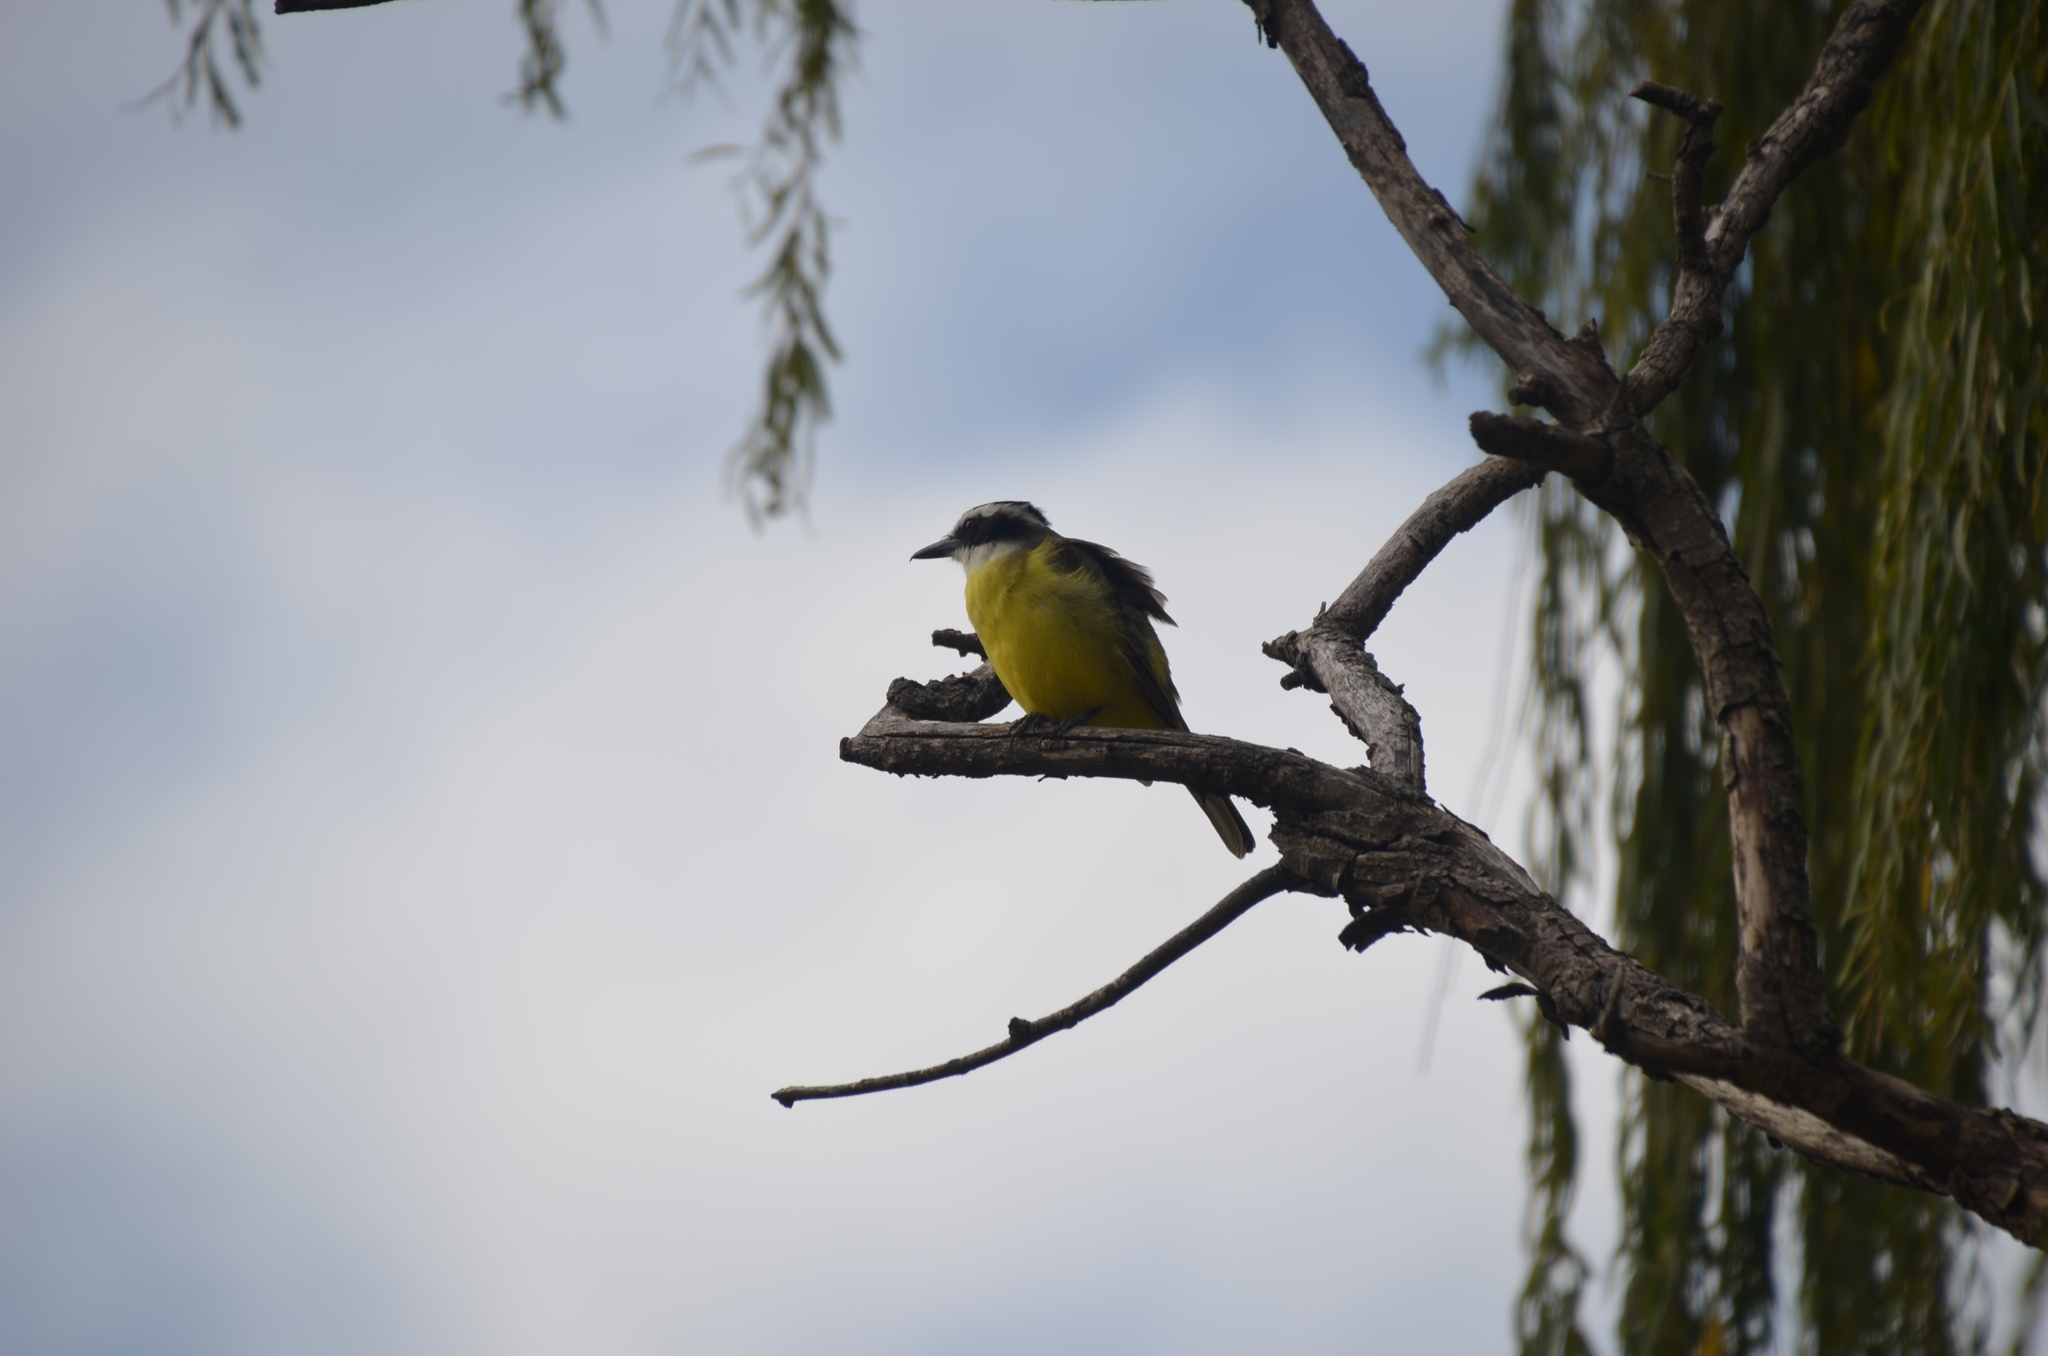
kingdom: Animalia
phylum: Chordata
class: Aves
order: Passeriformes
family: Tyrannidae
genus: Pitangus
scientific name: Pitangus sulphuratus
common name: Great kiskadee
